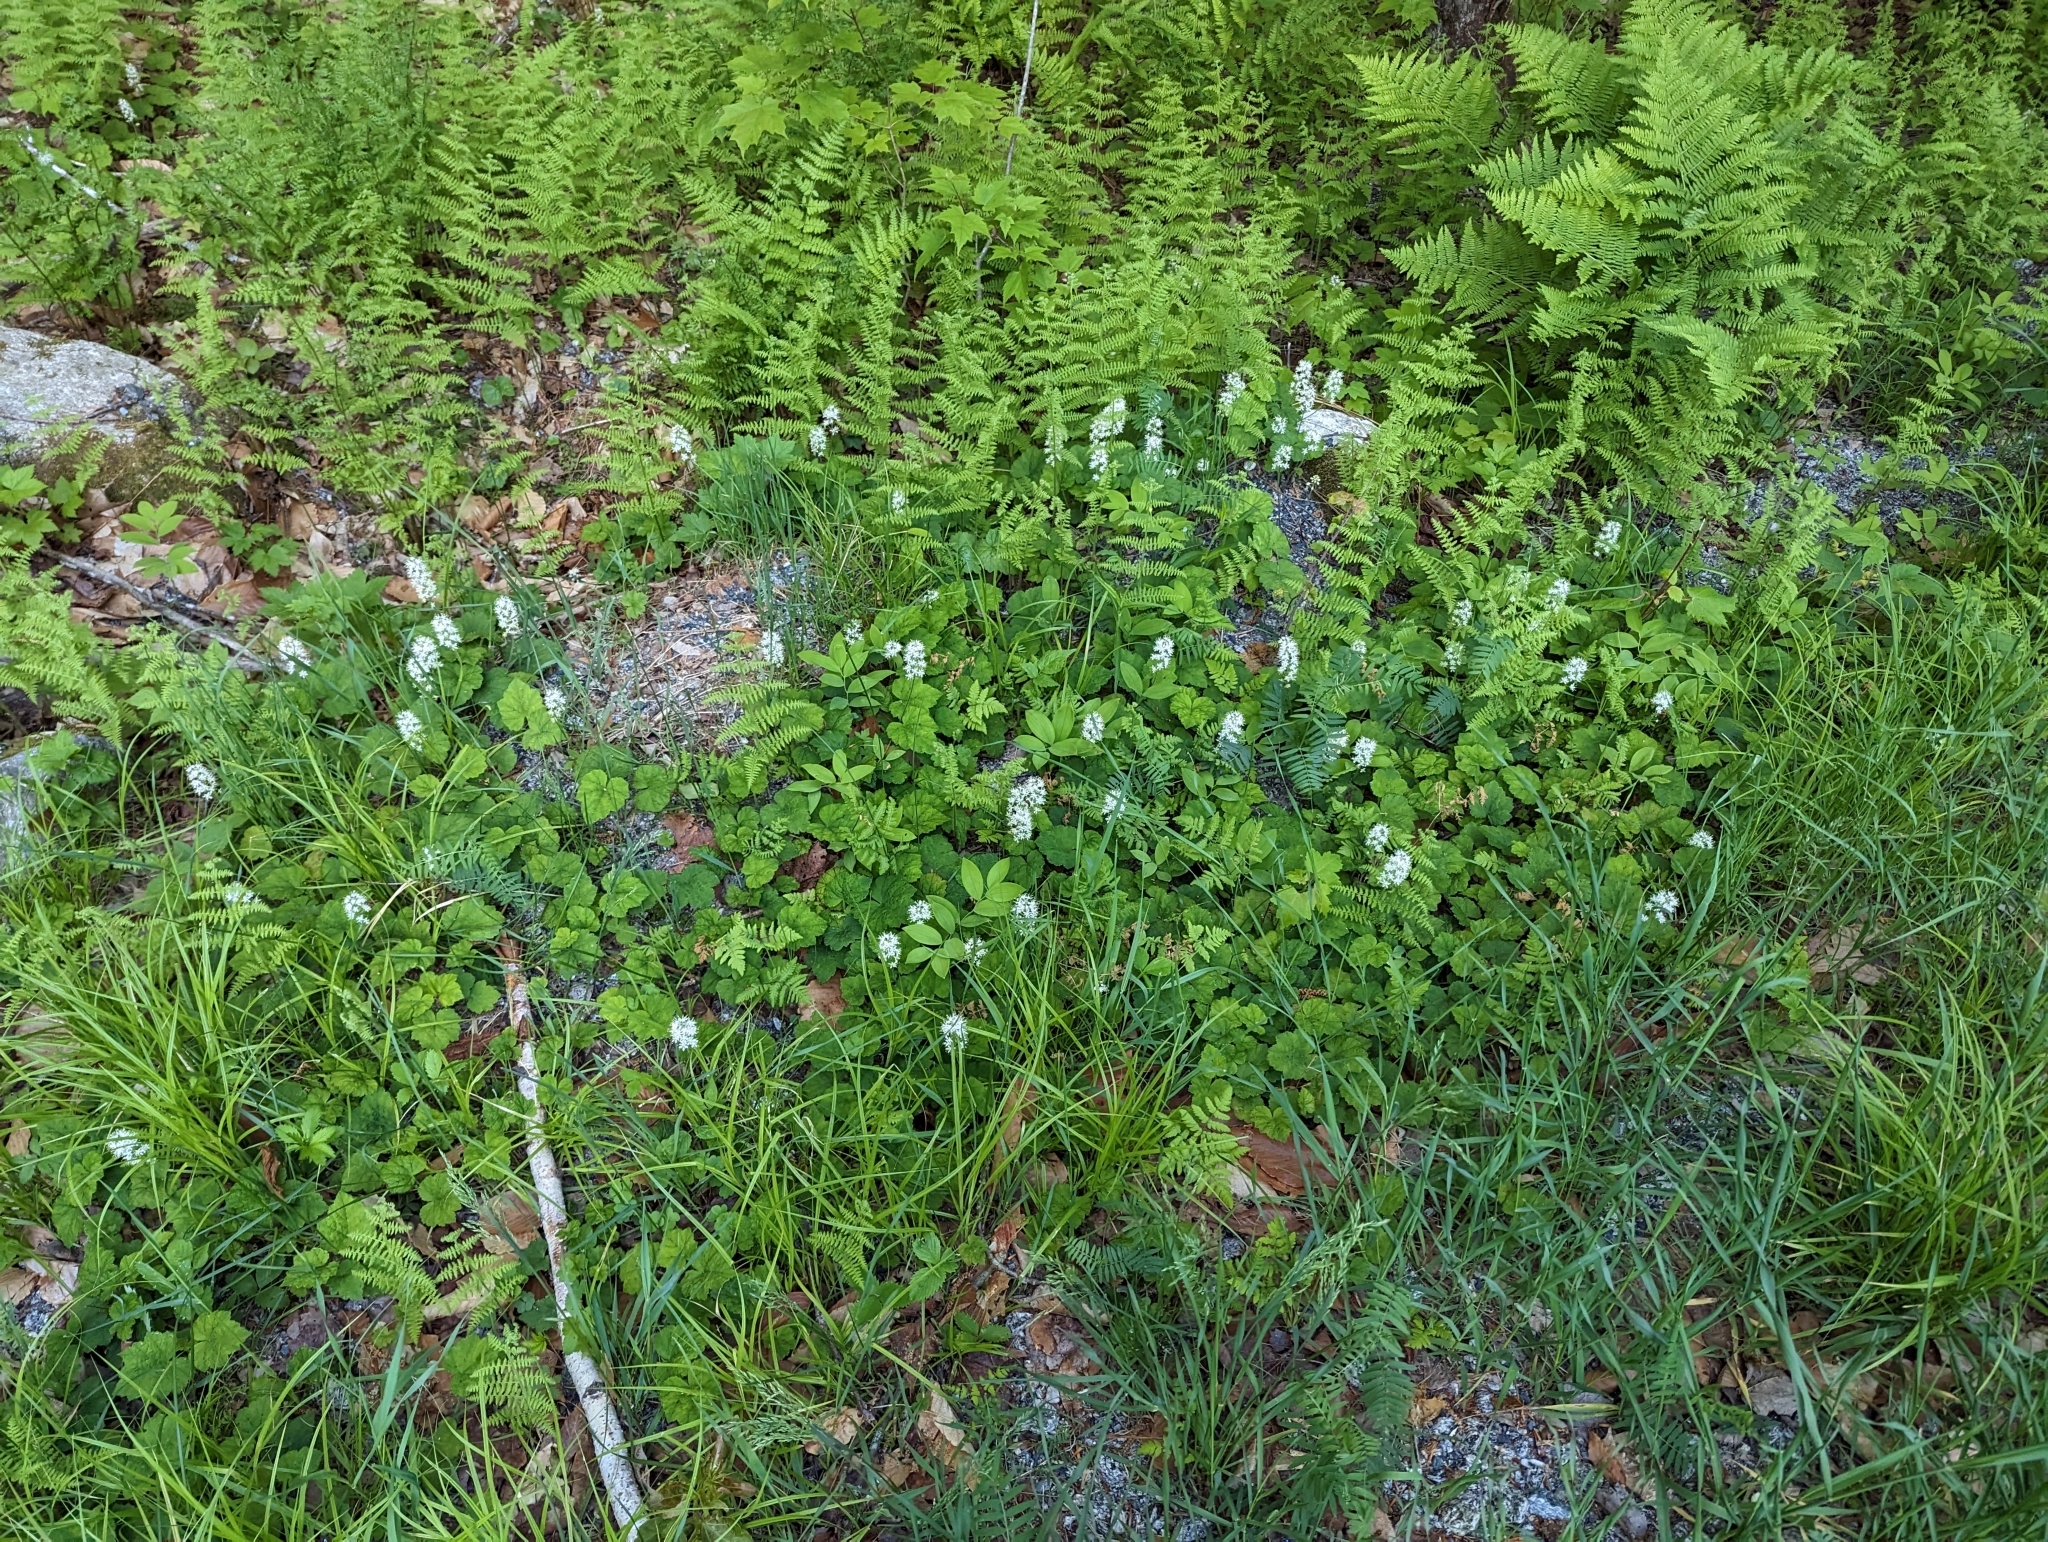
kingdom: Plantae
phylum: Tracheophyta
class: Magnoliopsida
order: Saxifragales
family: Saxifragaceae
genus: Tiarella
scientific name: Tiarella stolonifera
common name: Stoloniferous foamflower
